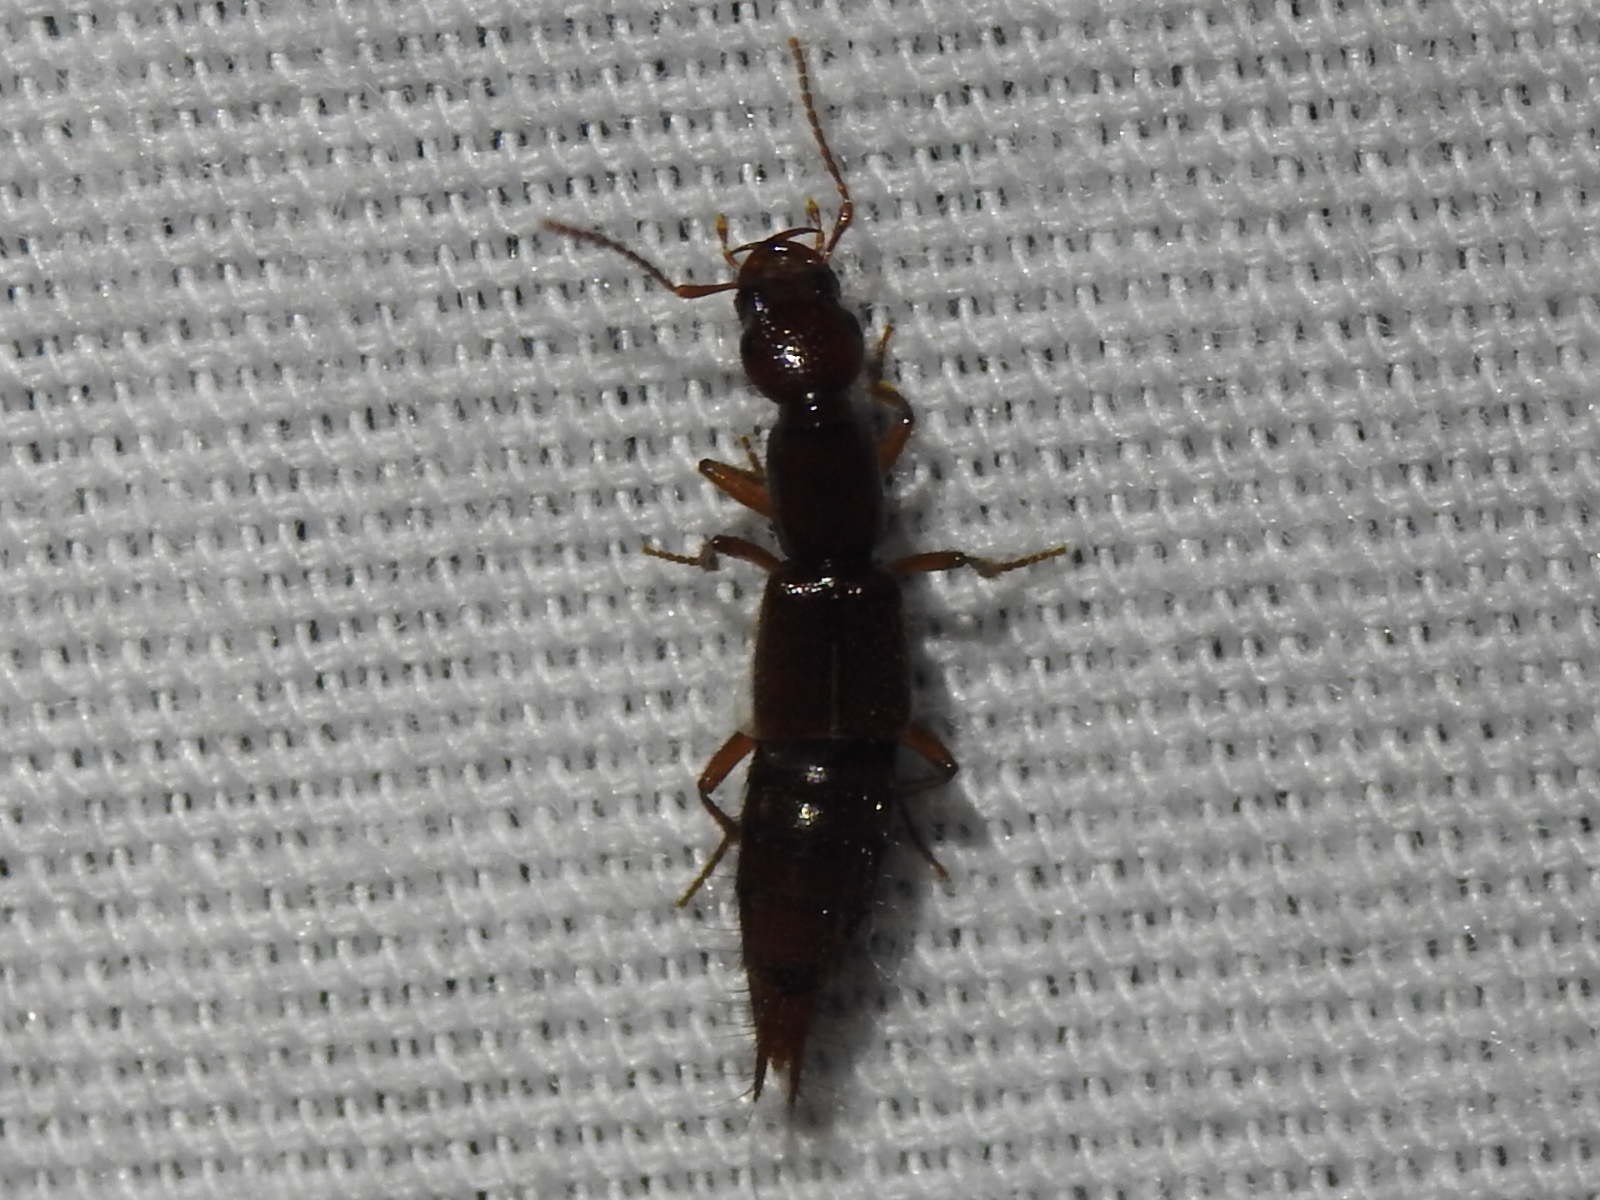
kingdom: Animalia
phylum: Arthropoda
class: Insecta
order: Coleoptera
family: Staphylinidae
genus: Biocrypta
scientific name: Biocrypta prospiciens
